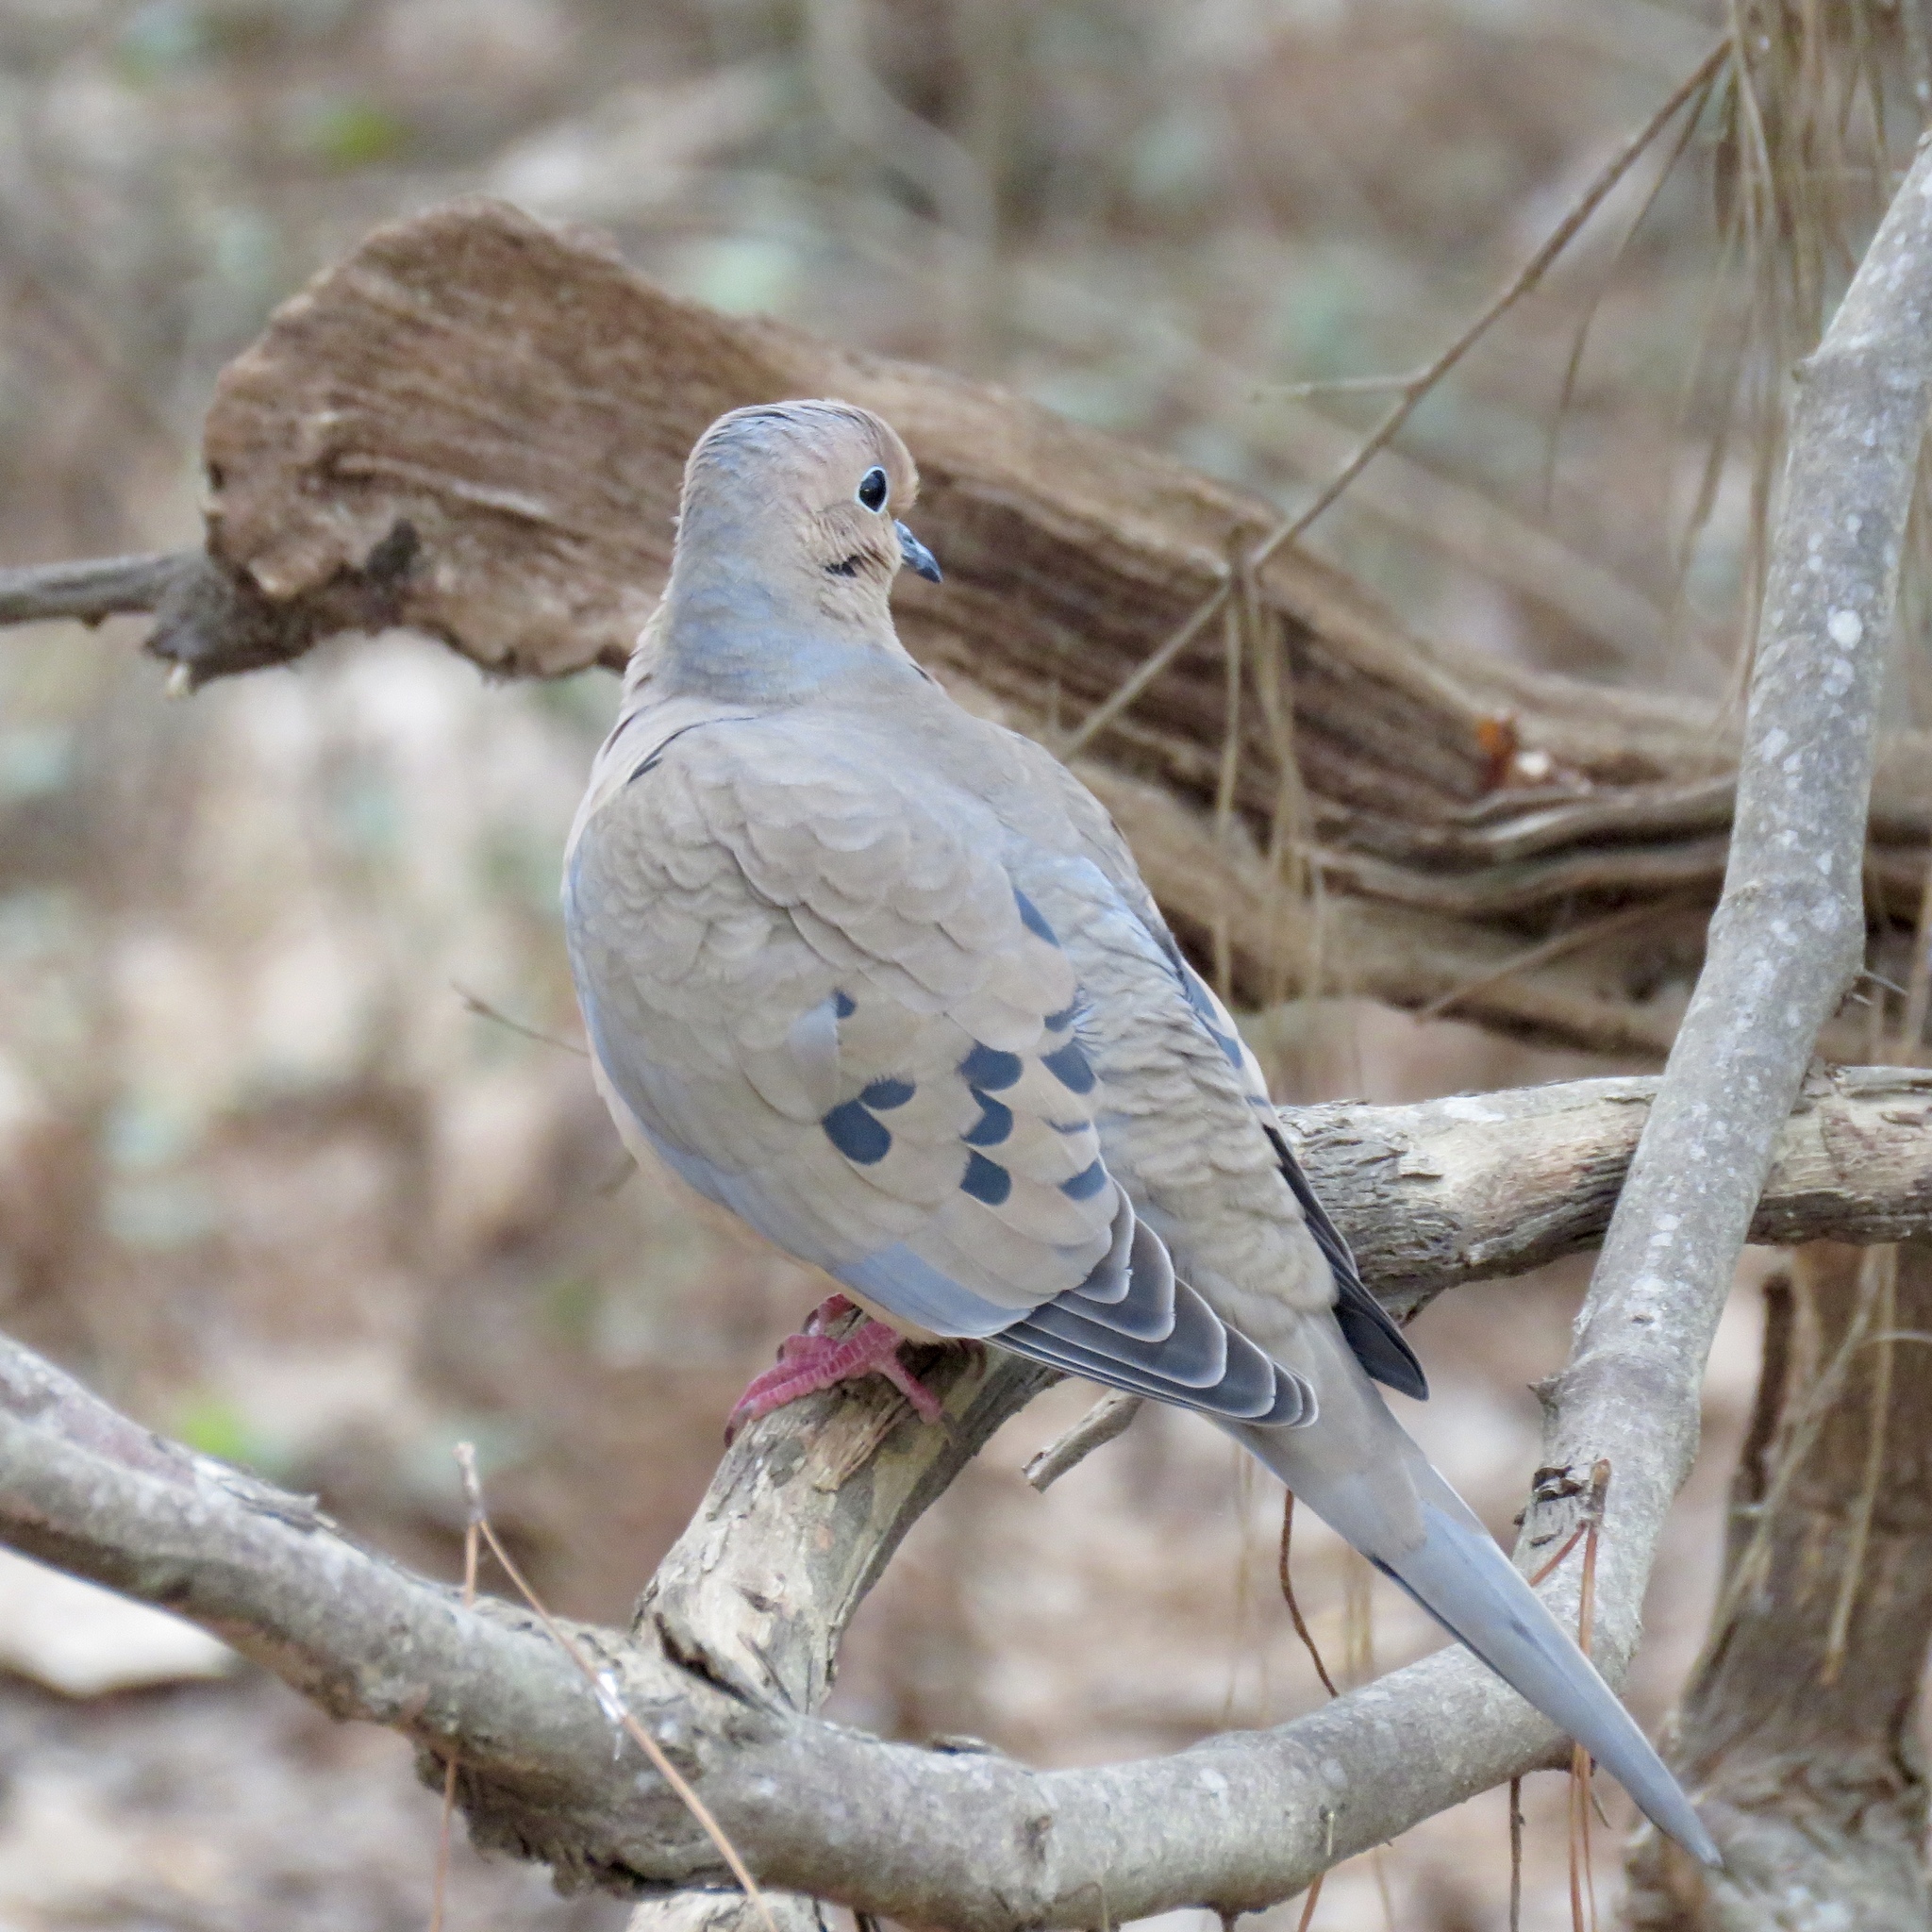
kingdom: Animalia
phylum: Chordata
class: Aves
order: Columbiformes
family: Columbidae
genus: Zenaida
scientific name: Zenaida macroura
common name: Mourning dove
